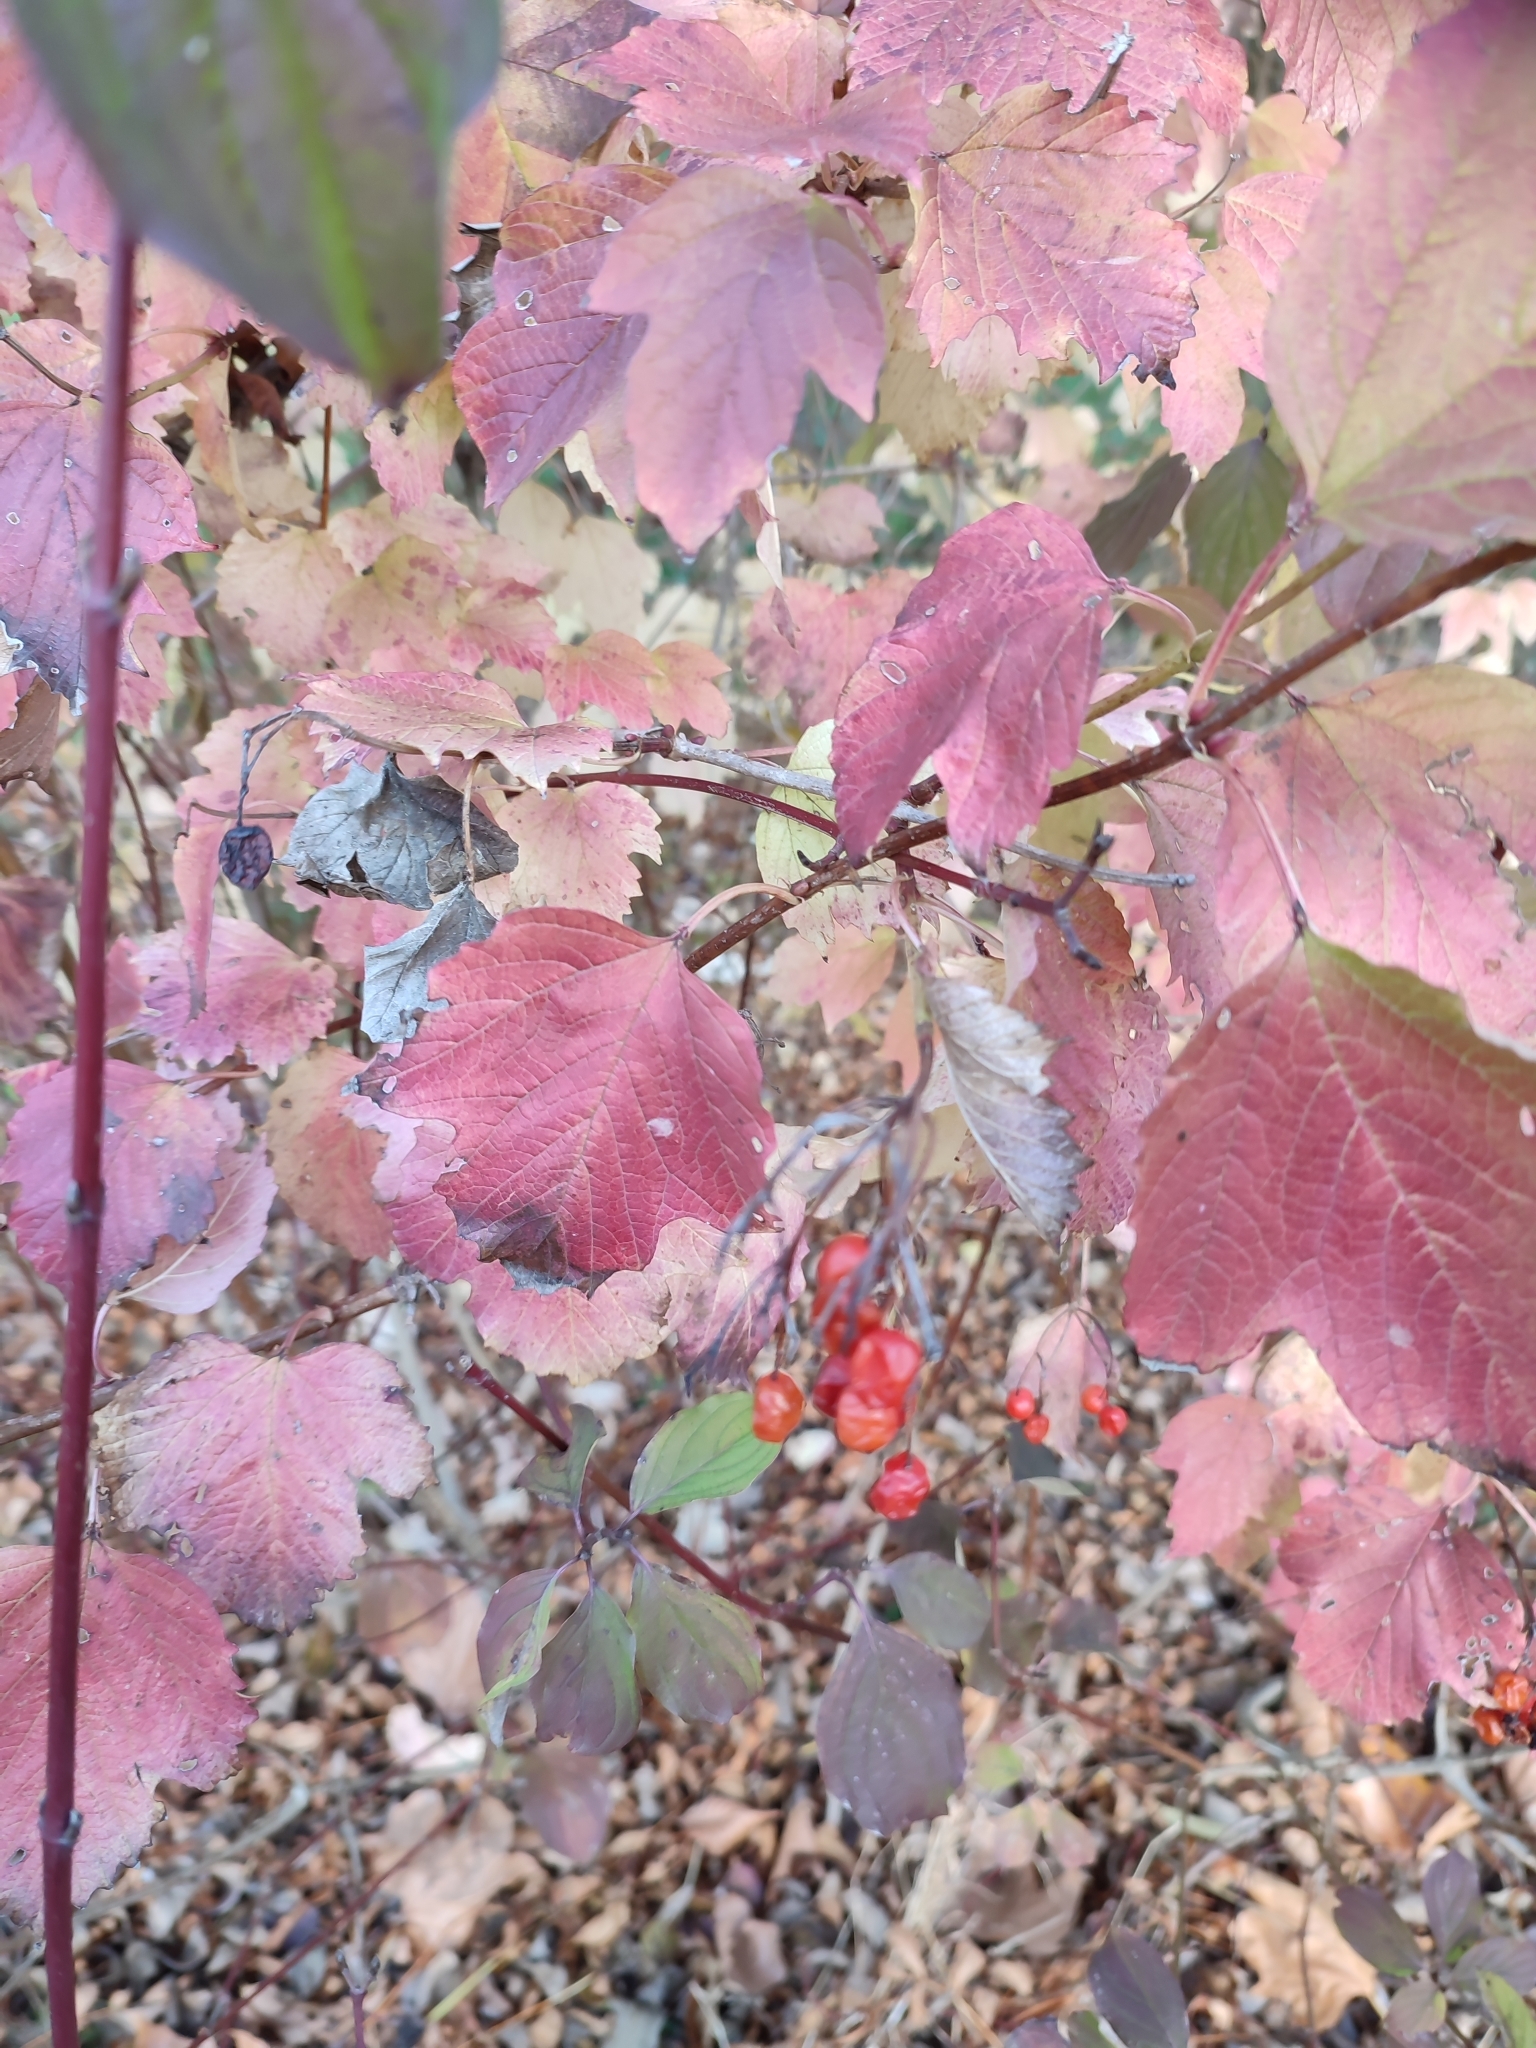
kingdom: Plantae
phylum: Tracheophyta
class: Magnoliopsida
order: Dipsacales
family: Viburnaceae
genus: Viburnum
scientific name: Viburnum opulus
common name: Guelder-rose
